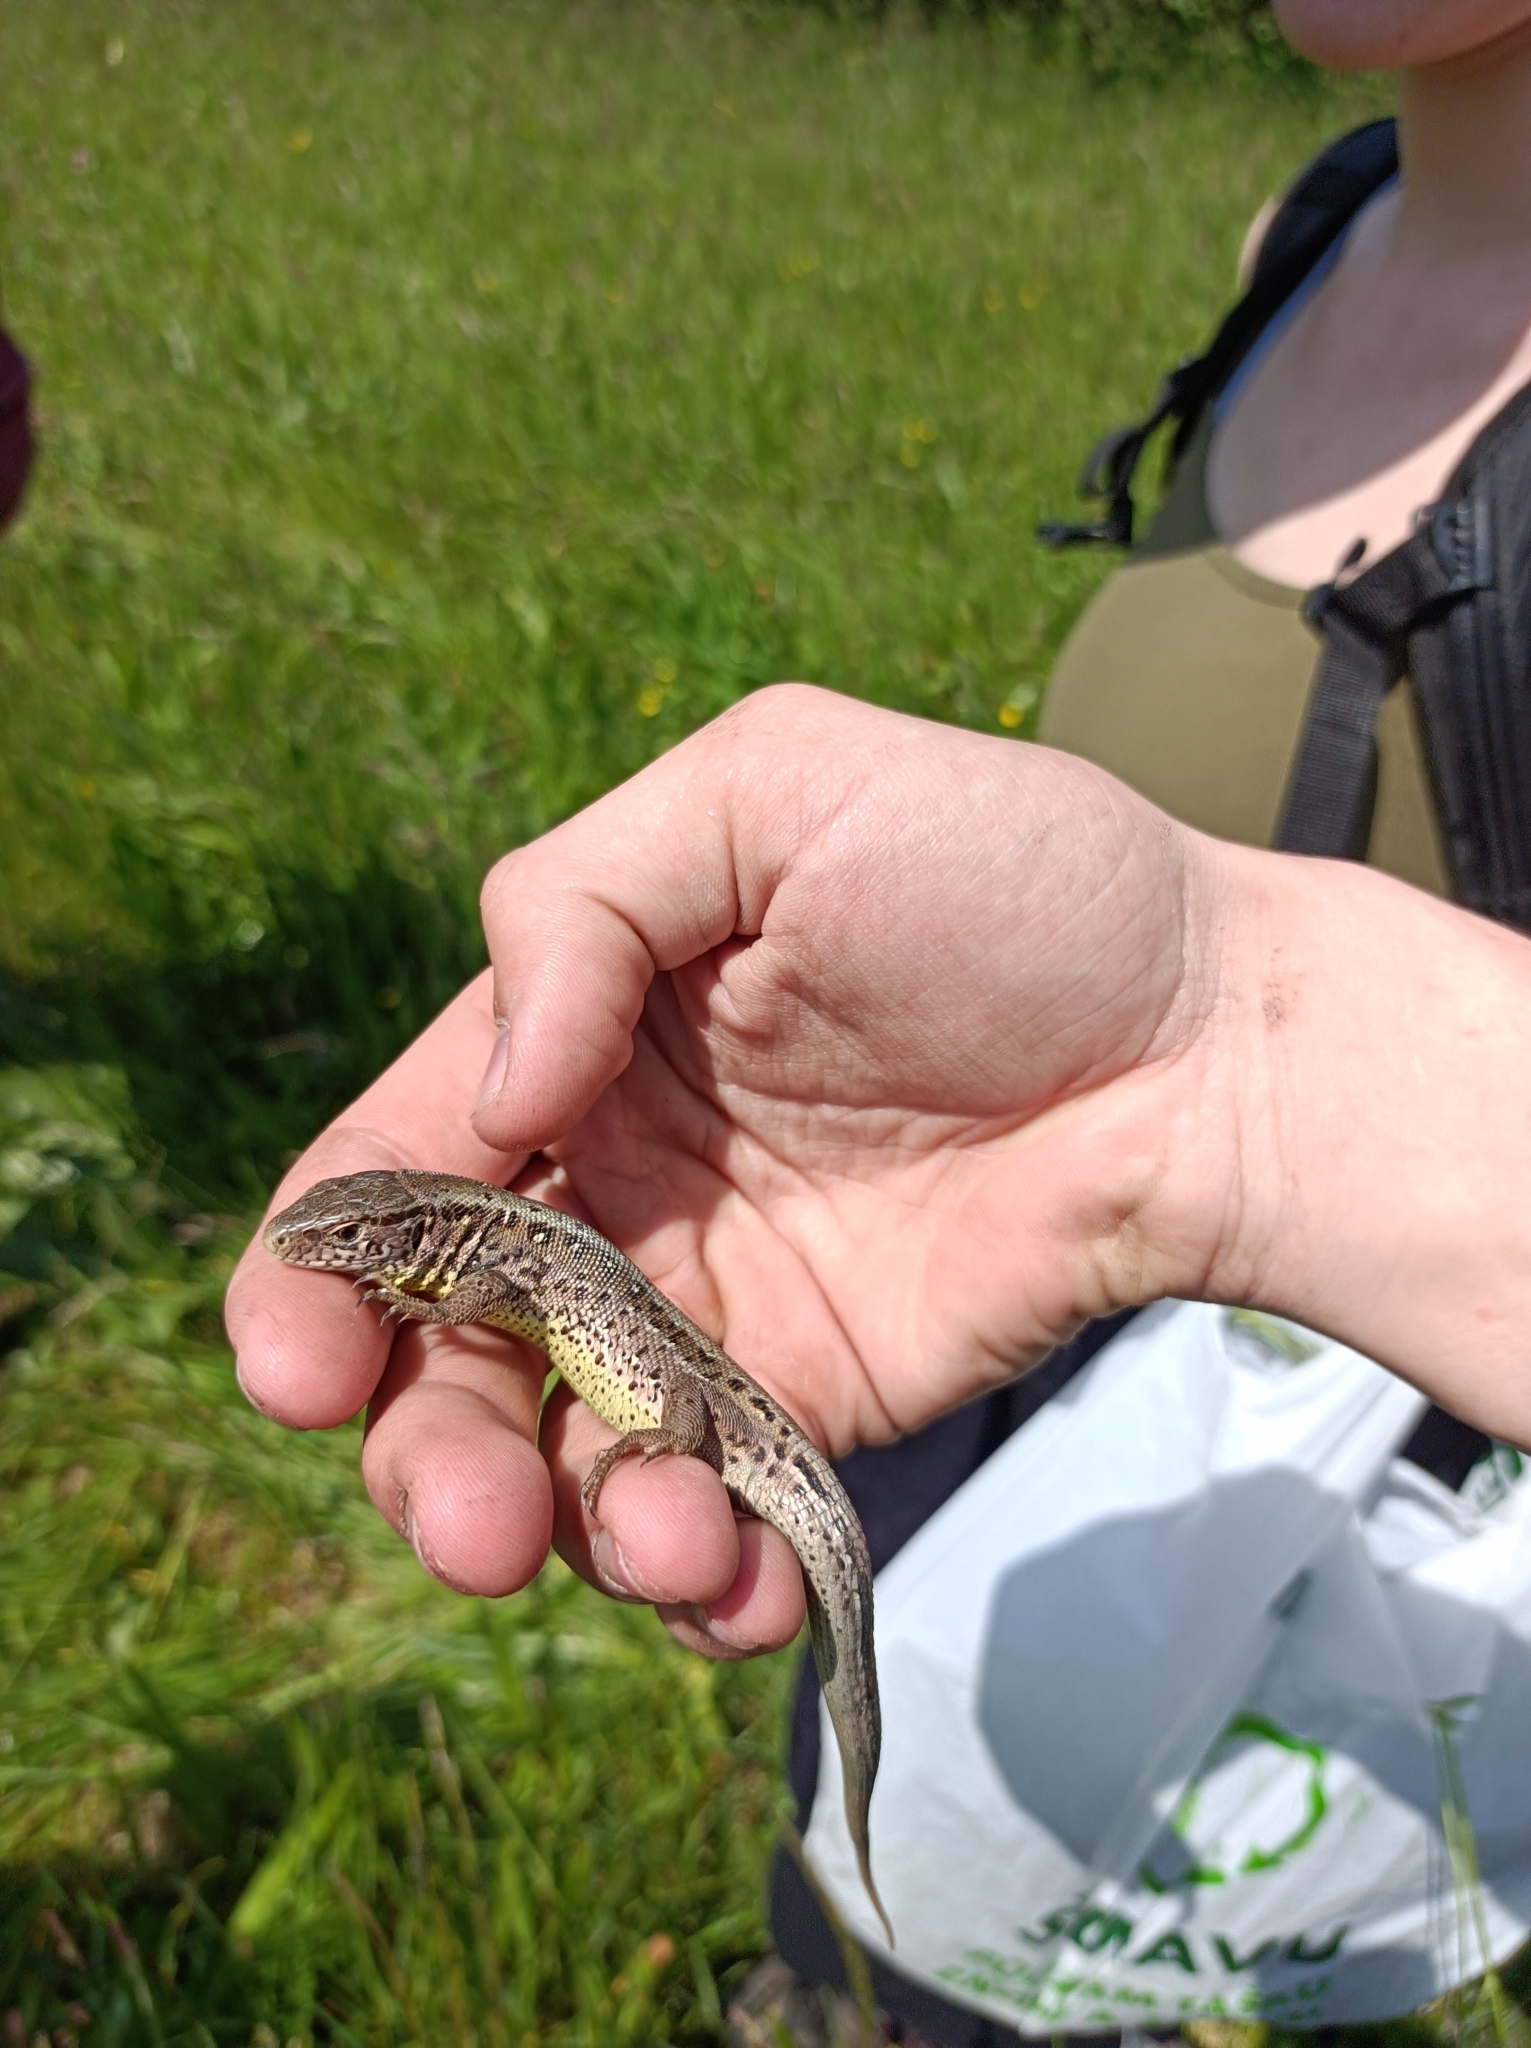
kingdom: Animalia
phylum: Chordata
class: Squamata
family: Lacertidae
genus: Lacerta
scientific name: Lacerta agilis
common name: Sand lizard
